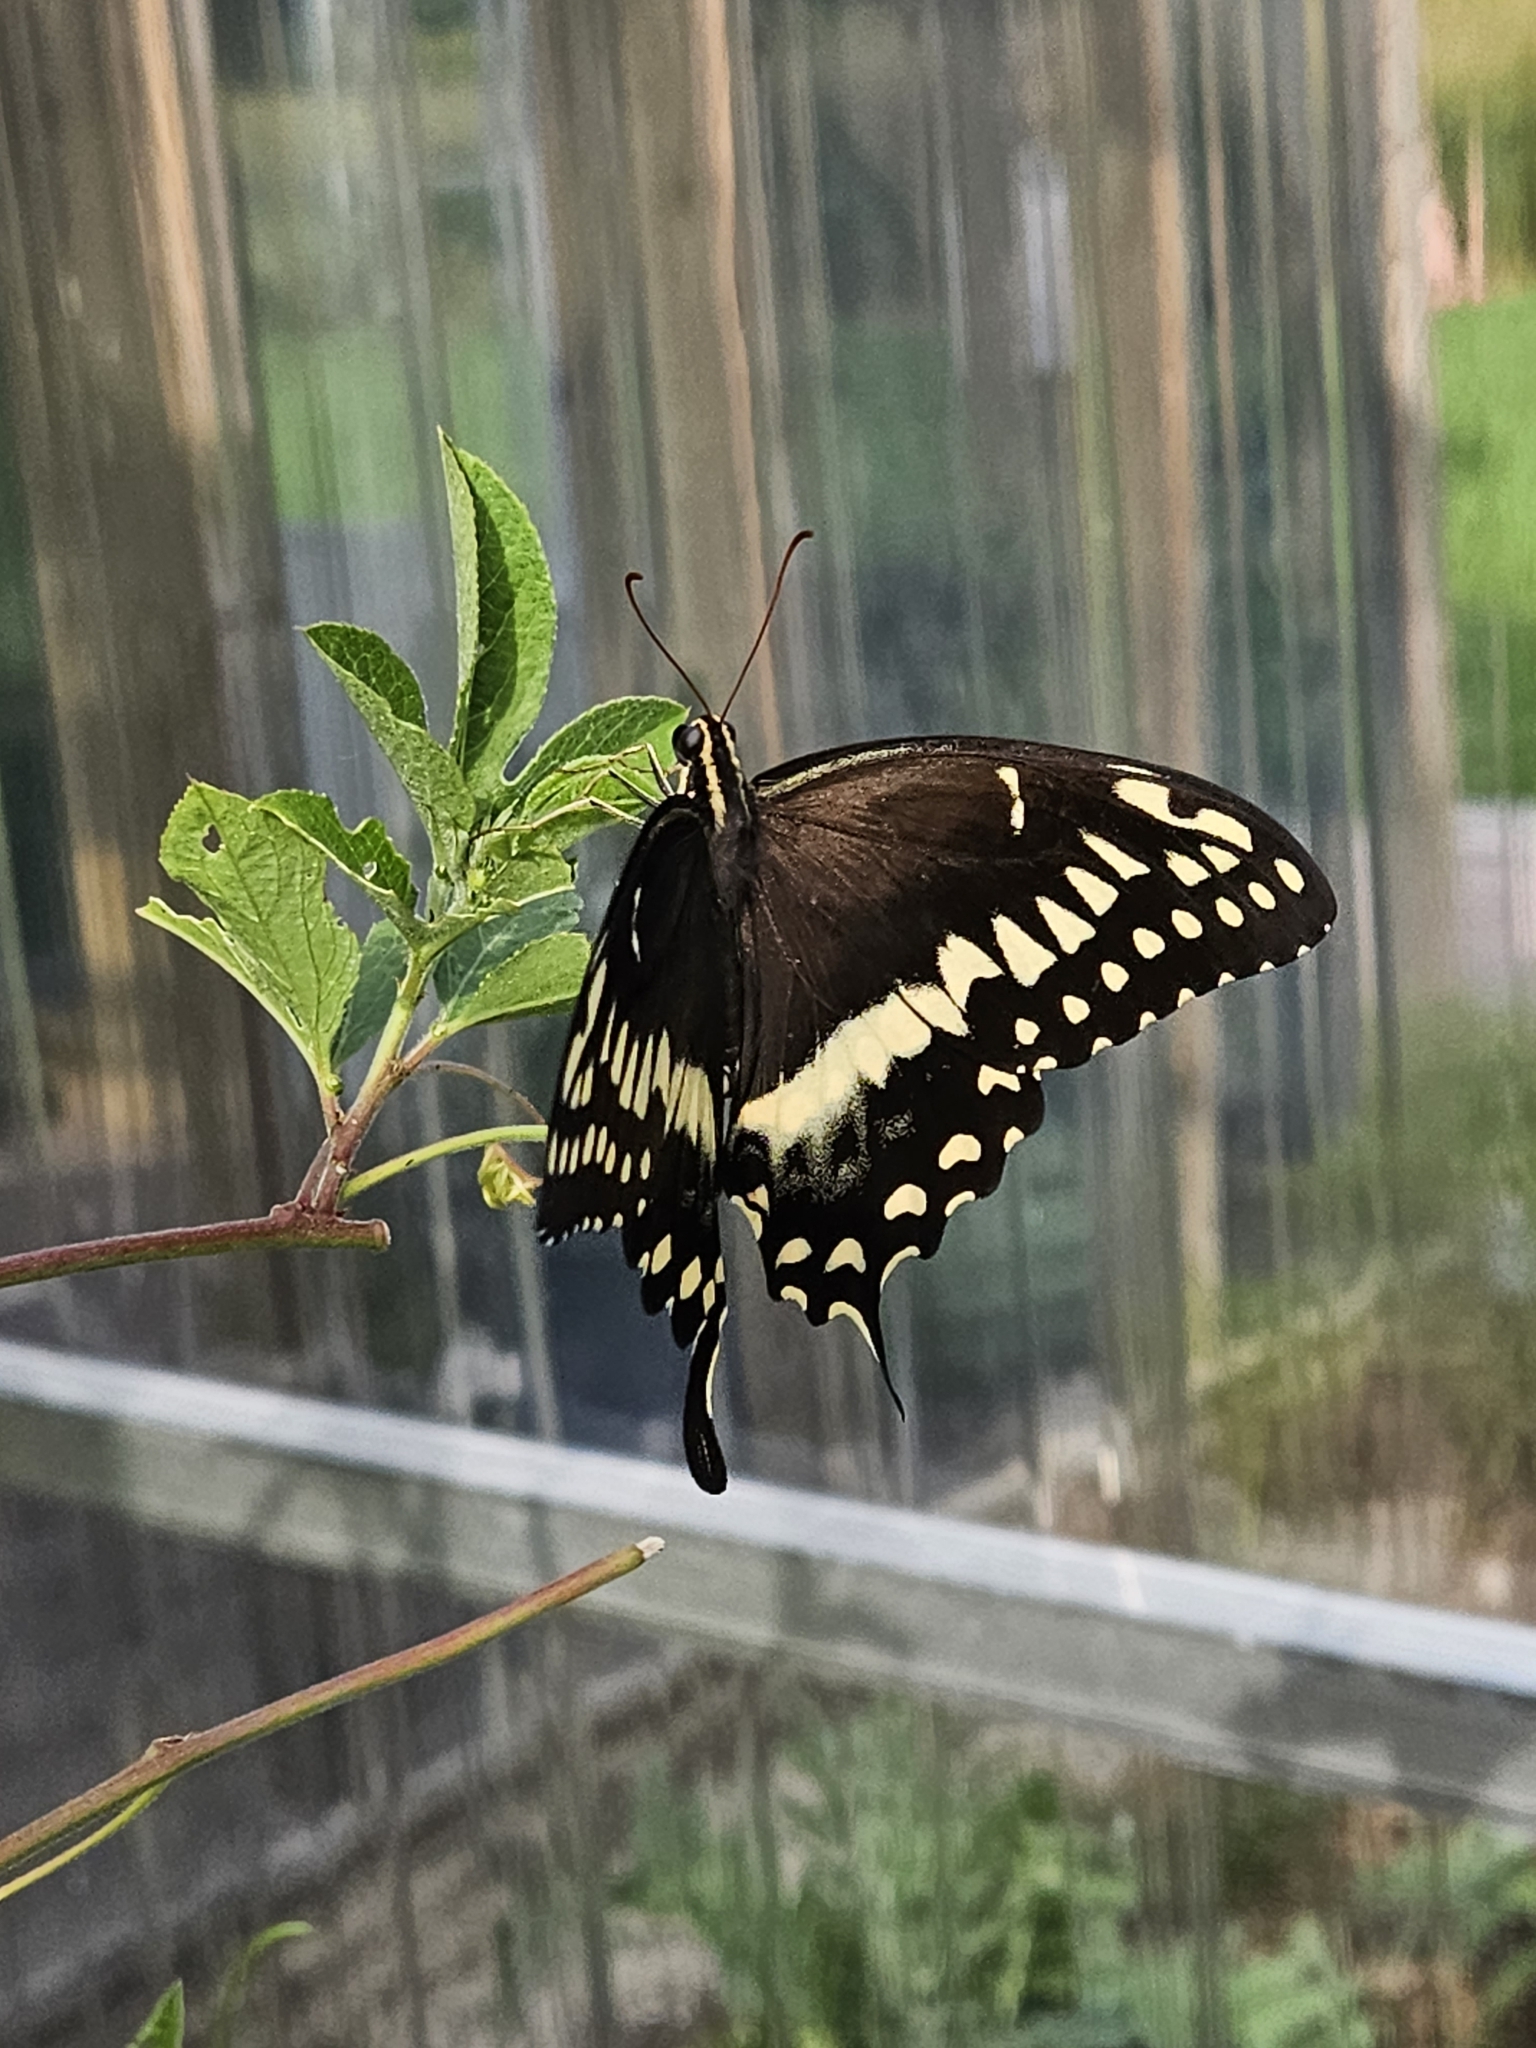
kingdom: Animalia
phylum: Arthropoda
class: Insecta
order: Lepidoptera
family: Papilionidae
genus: Papilio
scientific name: Papilio palamedes
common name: Palamedes swallowtail
